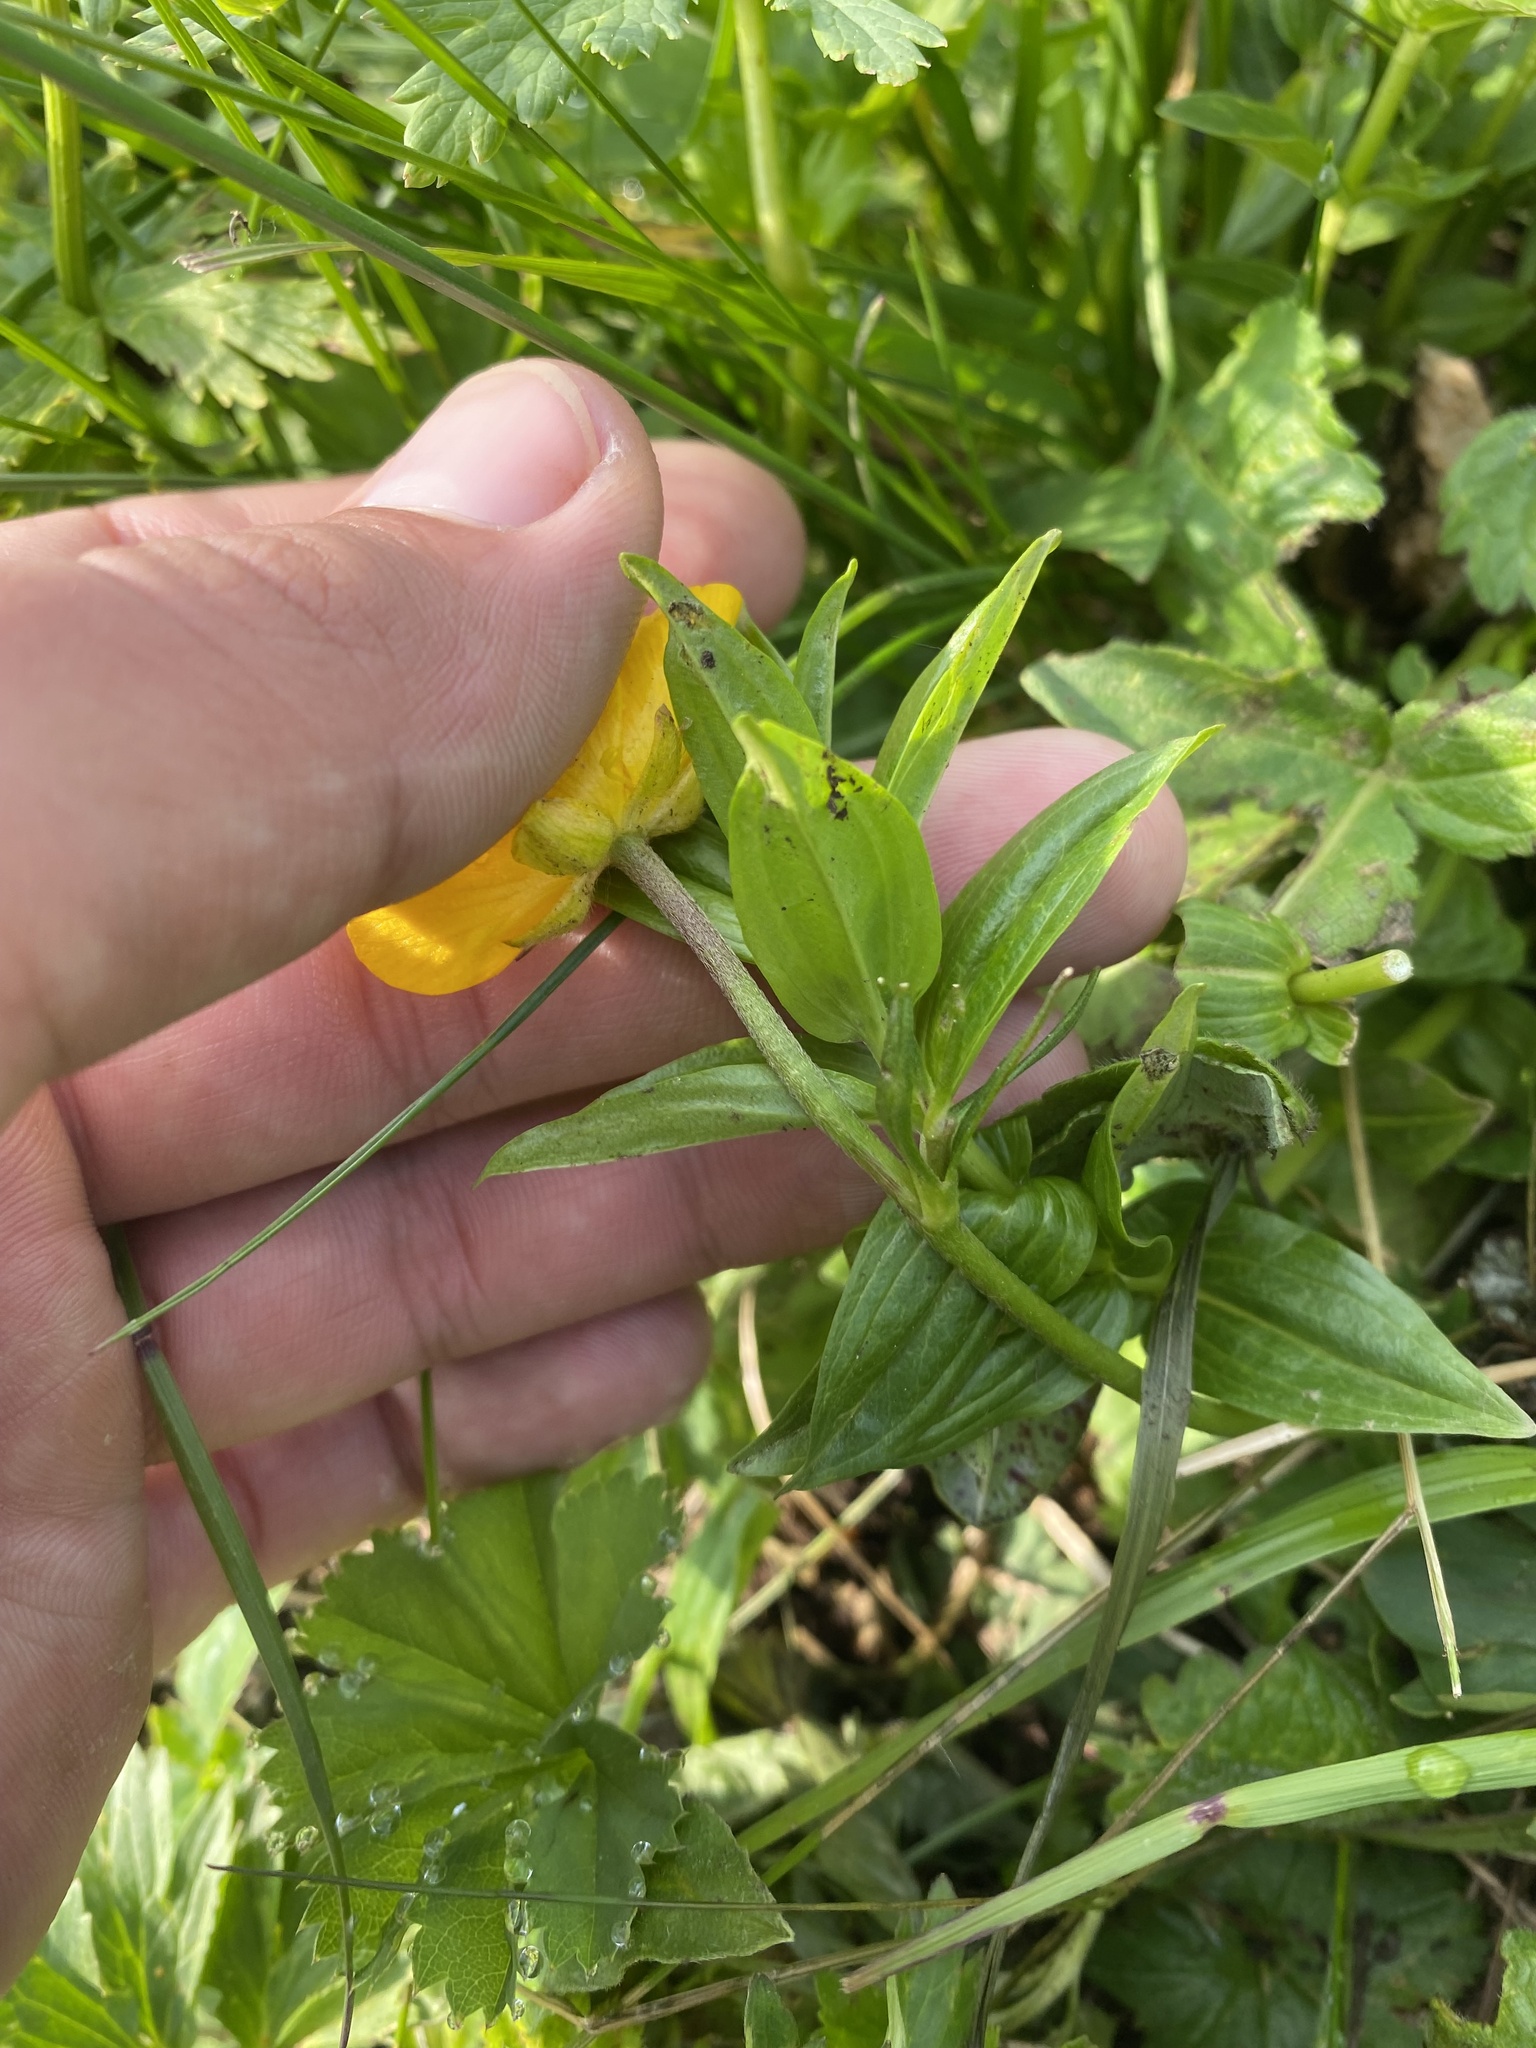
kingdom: Plantae
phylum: Tracheophyta
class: Magnoliopsida
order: Ranunculales
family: Ranunculaceae
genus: Trollius
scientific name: Trollius ranunculinus
